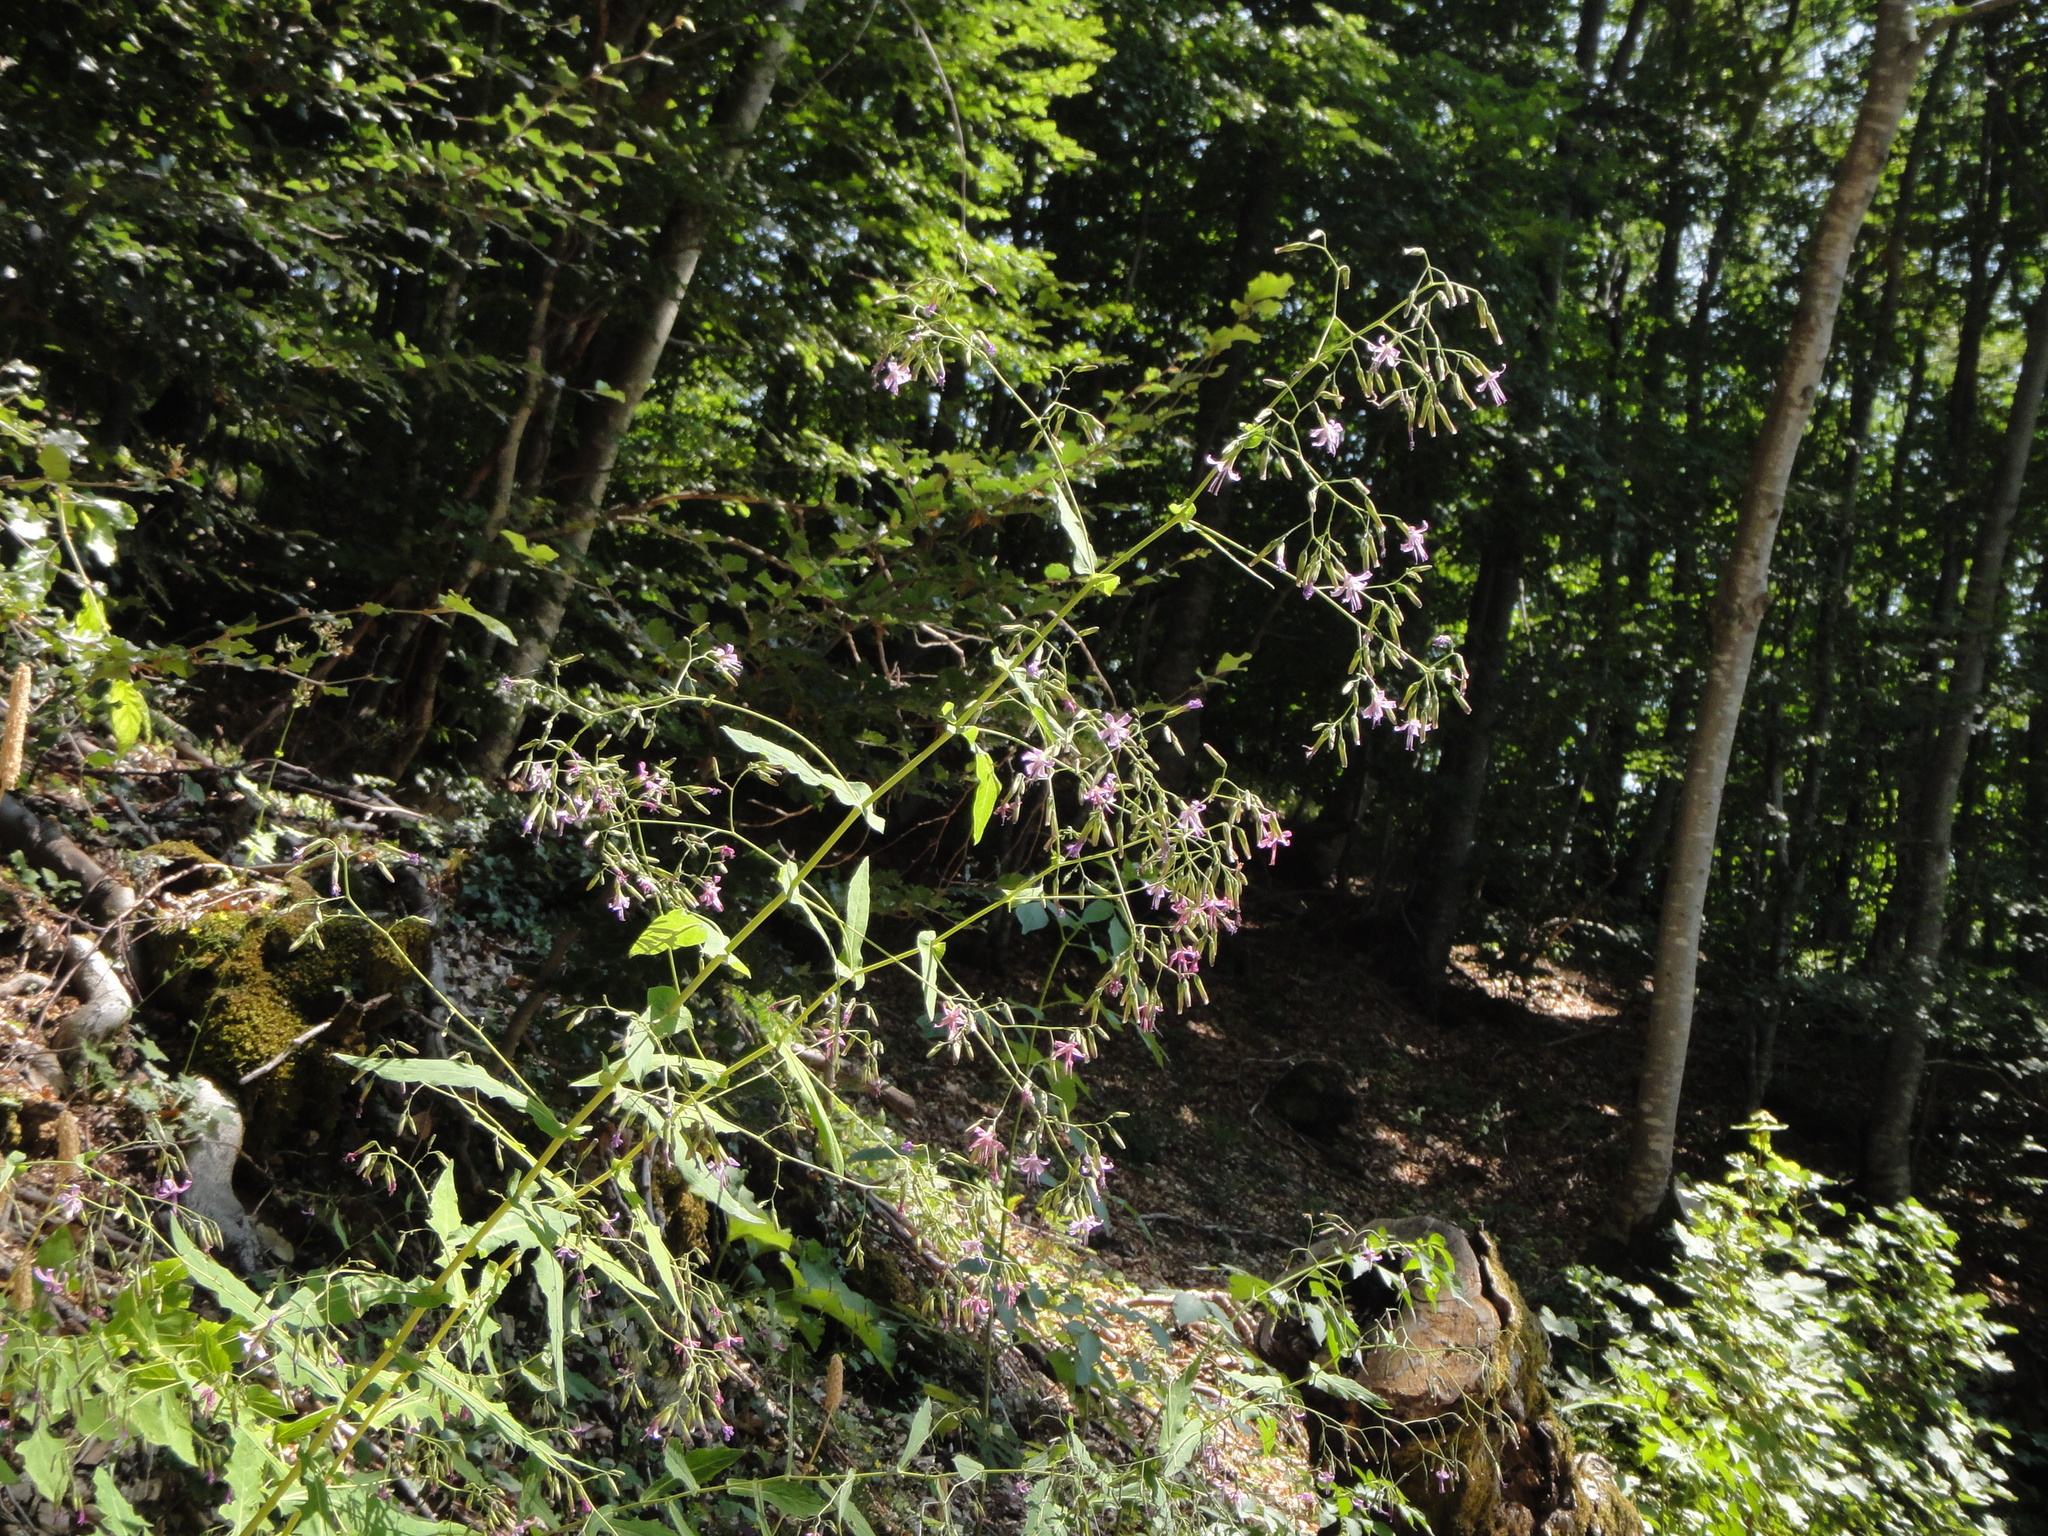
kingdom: Plantae
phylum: Tracheophyta
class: Magnoliopsida
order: Asterales
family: Asteraceae
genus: Prenanthes
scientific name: Prenanthes purpurea
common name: Purple lettuce
